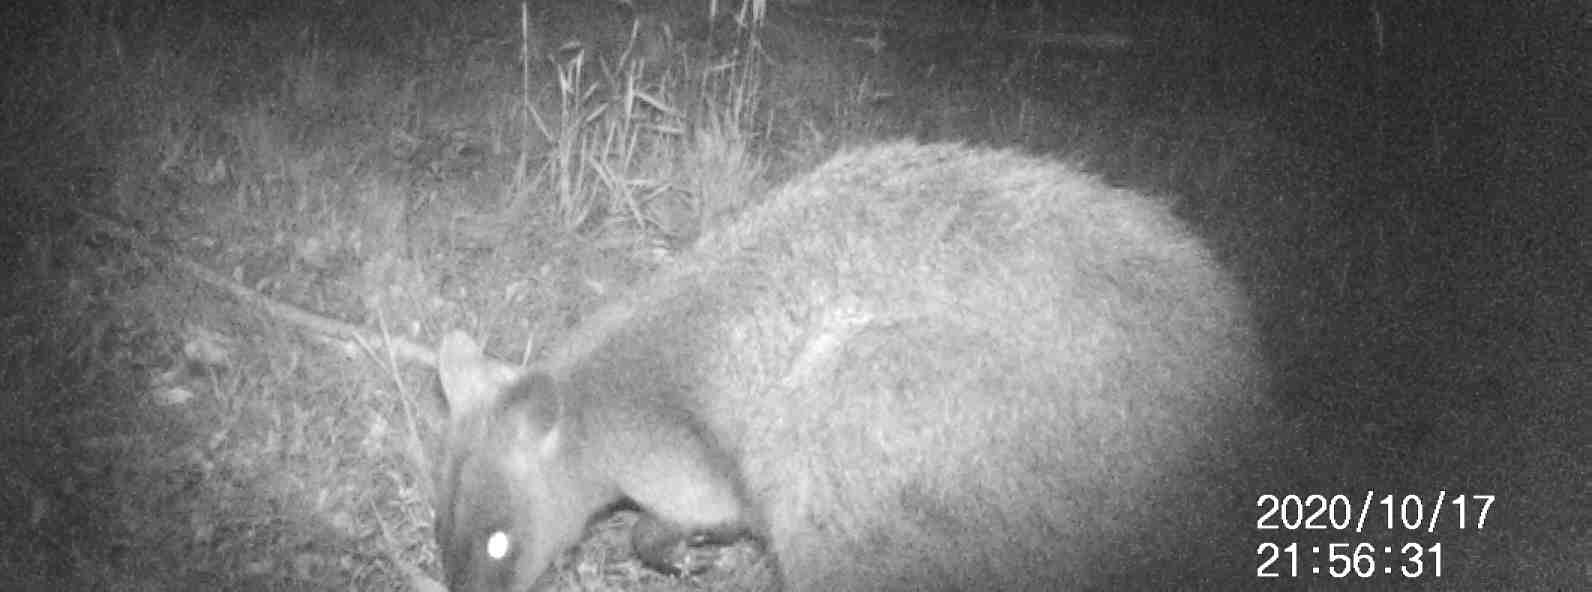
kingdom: Animalia
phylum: Chordata
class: Mammalia
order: Diprotodontia
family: Macropodidae
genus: Wallabia
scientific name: Wallabia bicolor
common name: Swamp wallaby
